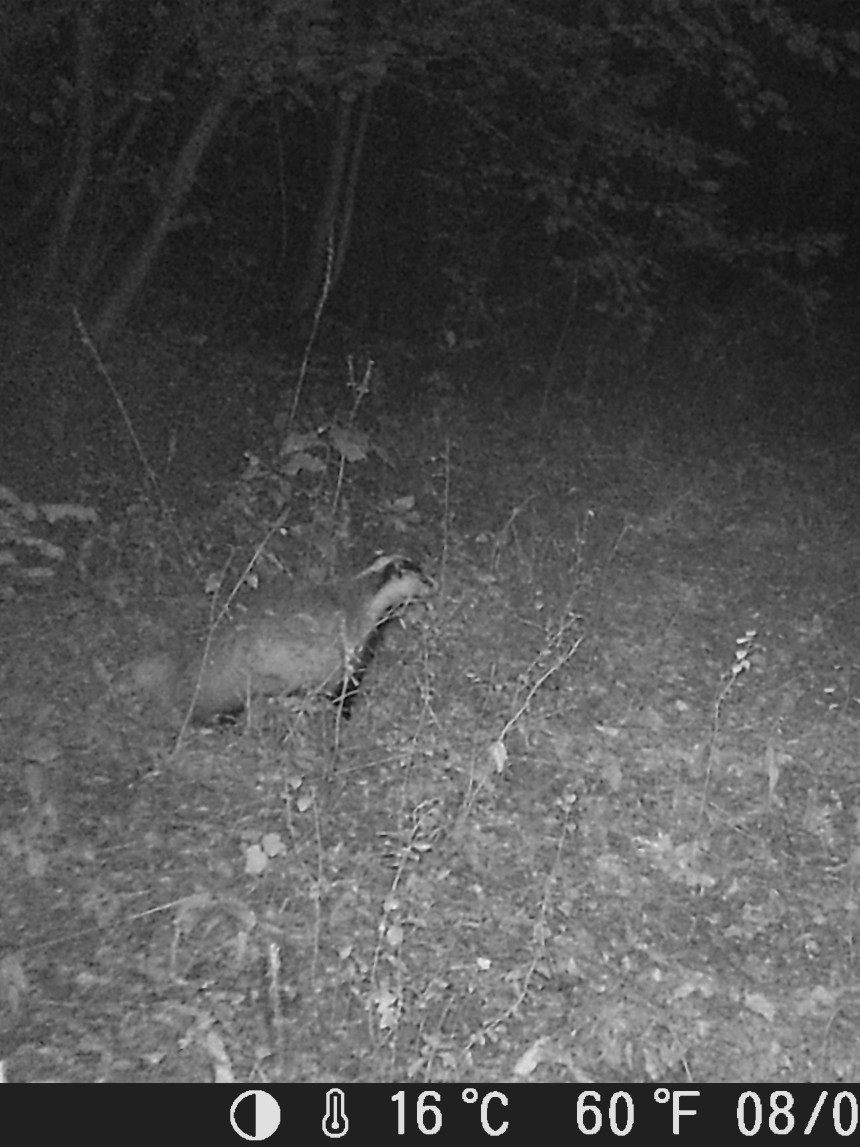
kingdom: Animalia
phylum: Chordata
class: Mammalia
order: Carnivora
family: Mustelidae
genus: Meles
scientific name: Meles meles
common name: Eurasian badger
